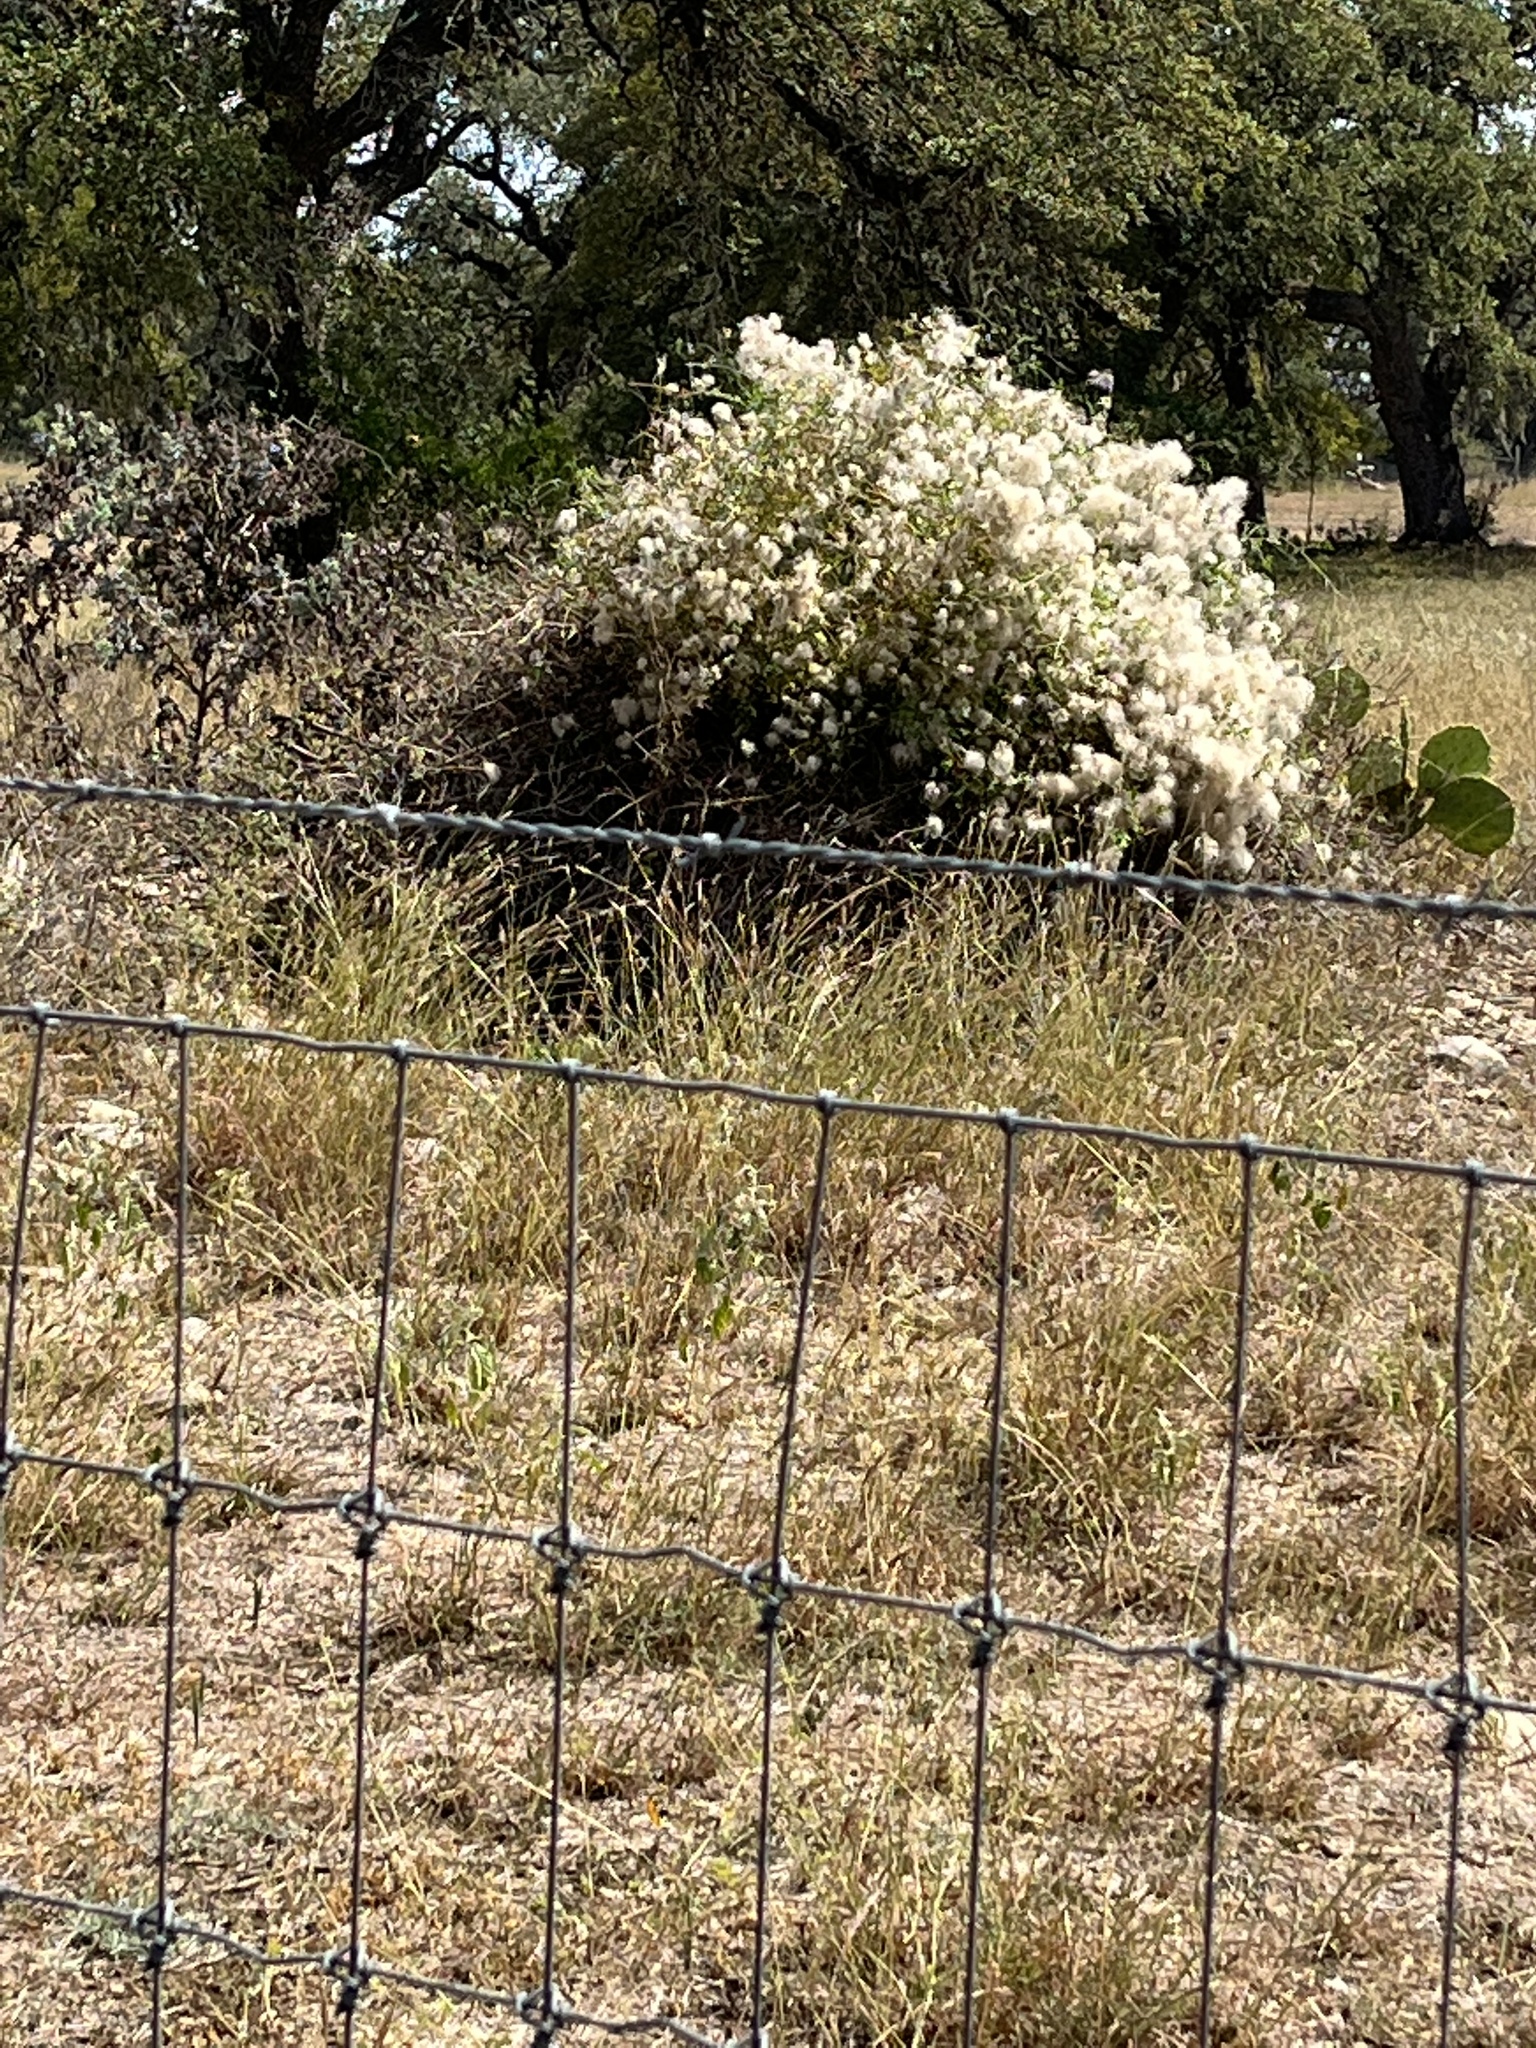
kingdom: Plantae
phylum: Tracheophyta
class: Magnoliopsida
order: Ranunculales
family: Ranunculaceae
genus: Clematis
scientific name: Clematis drummondii
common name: Texas virgin's bower
